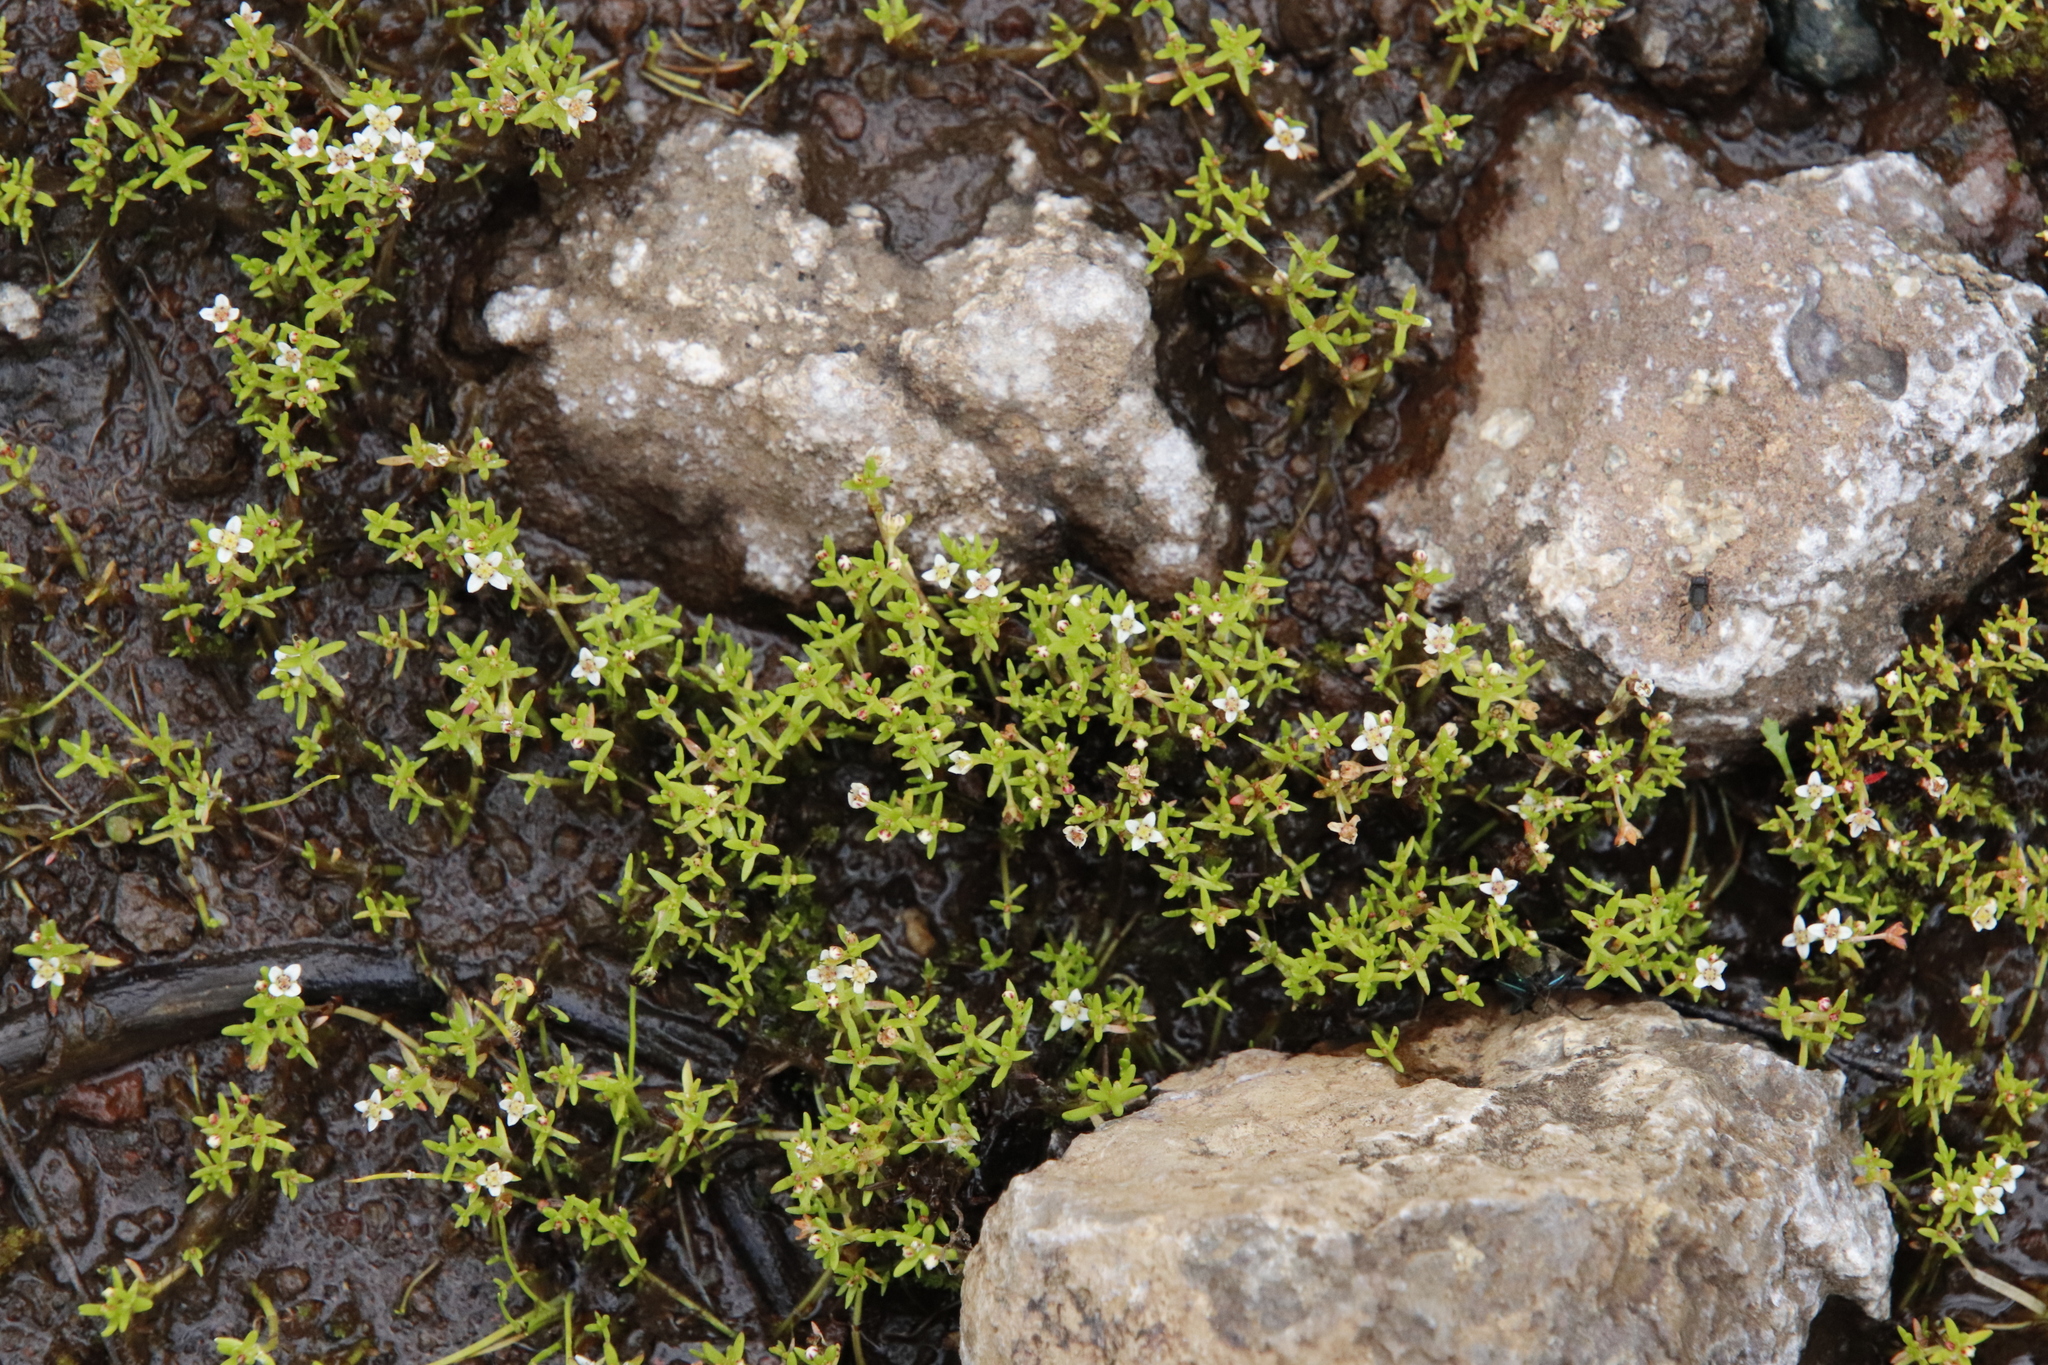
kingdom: Plantae
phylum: Tracheophyta
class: Magnoliopsida
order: Saxifragales
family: Crassulaceae
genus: Crassula
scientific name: Crassula tuberella
